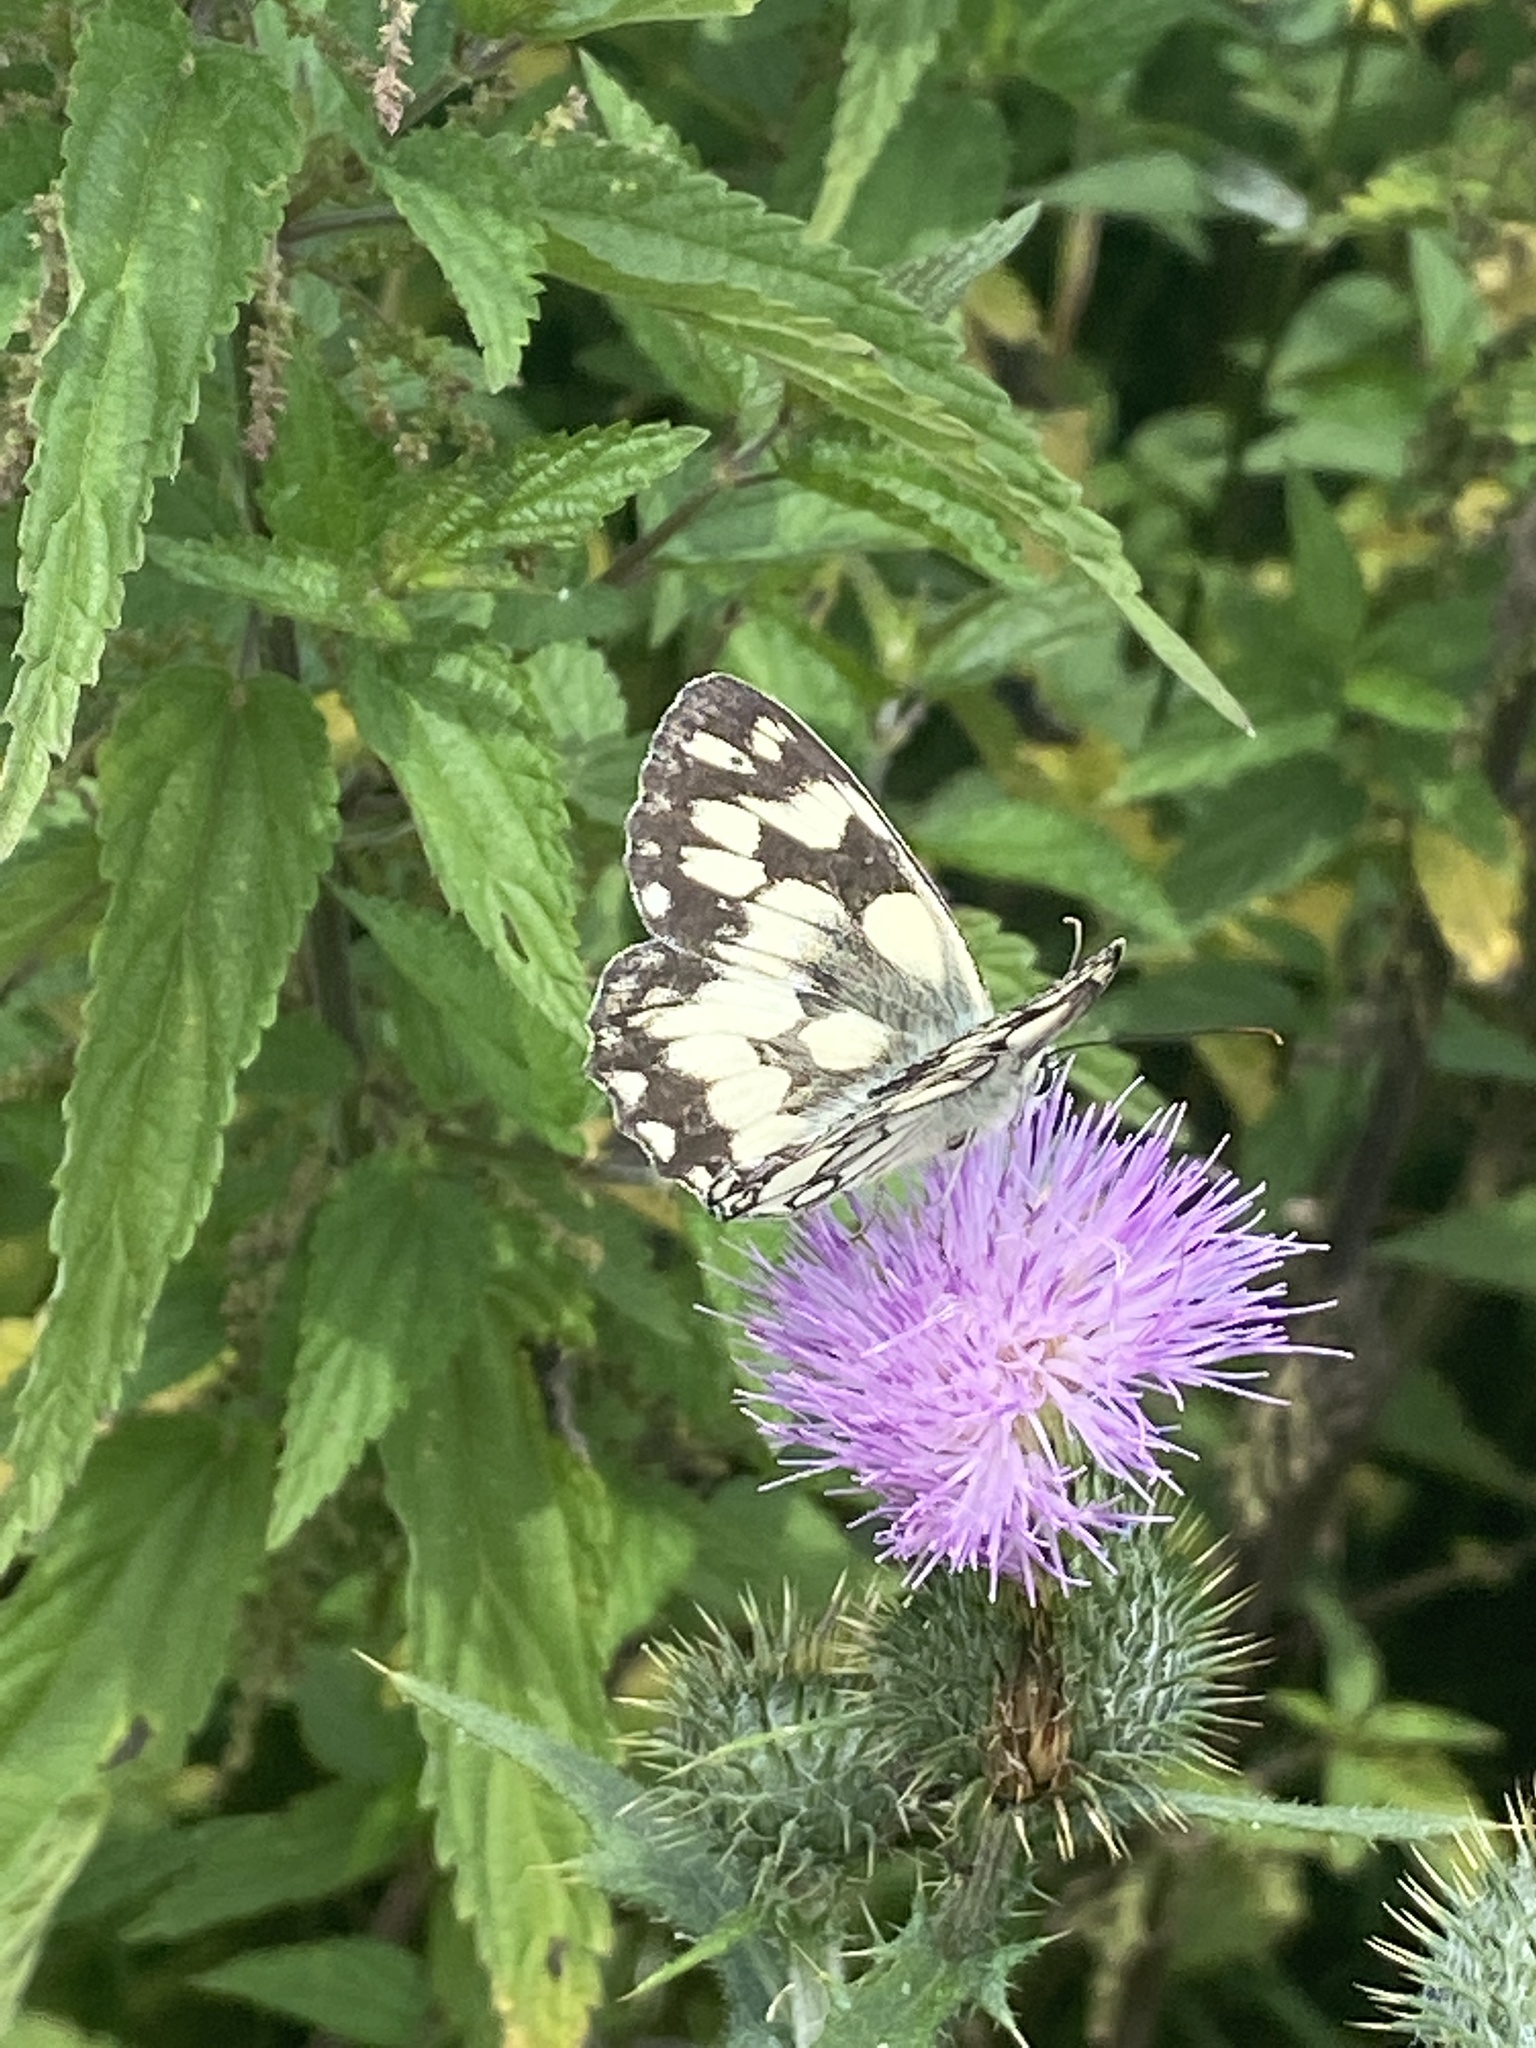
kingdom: Animalia
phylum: Arthropoda
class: Insecta
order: Lepidoptera
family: Nymphalidae
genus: Melanargia
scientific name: Melanargia galathea
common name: Marbled white
